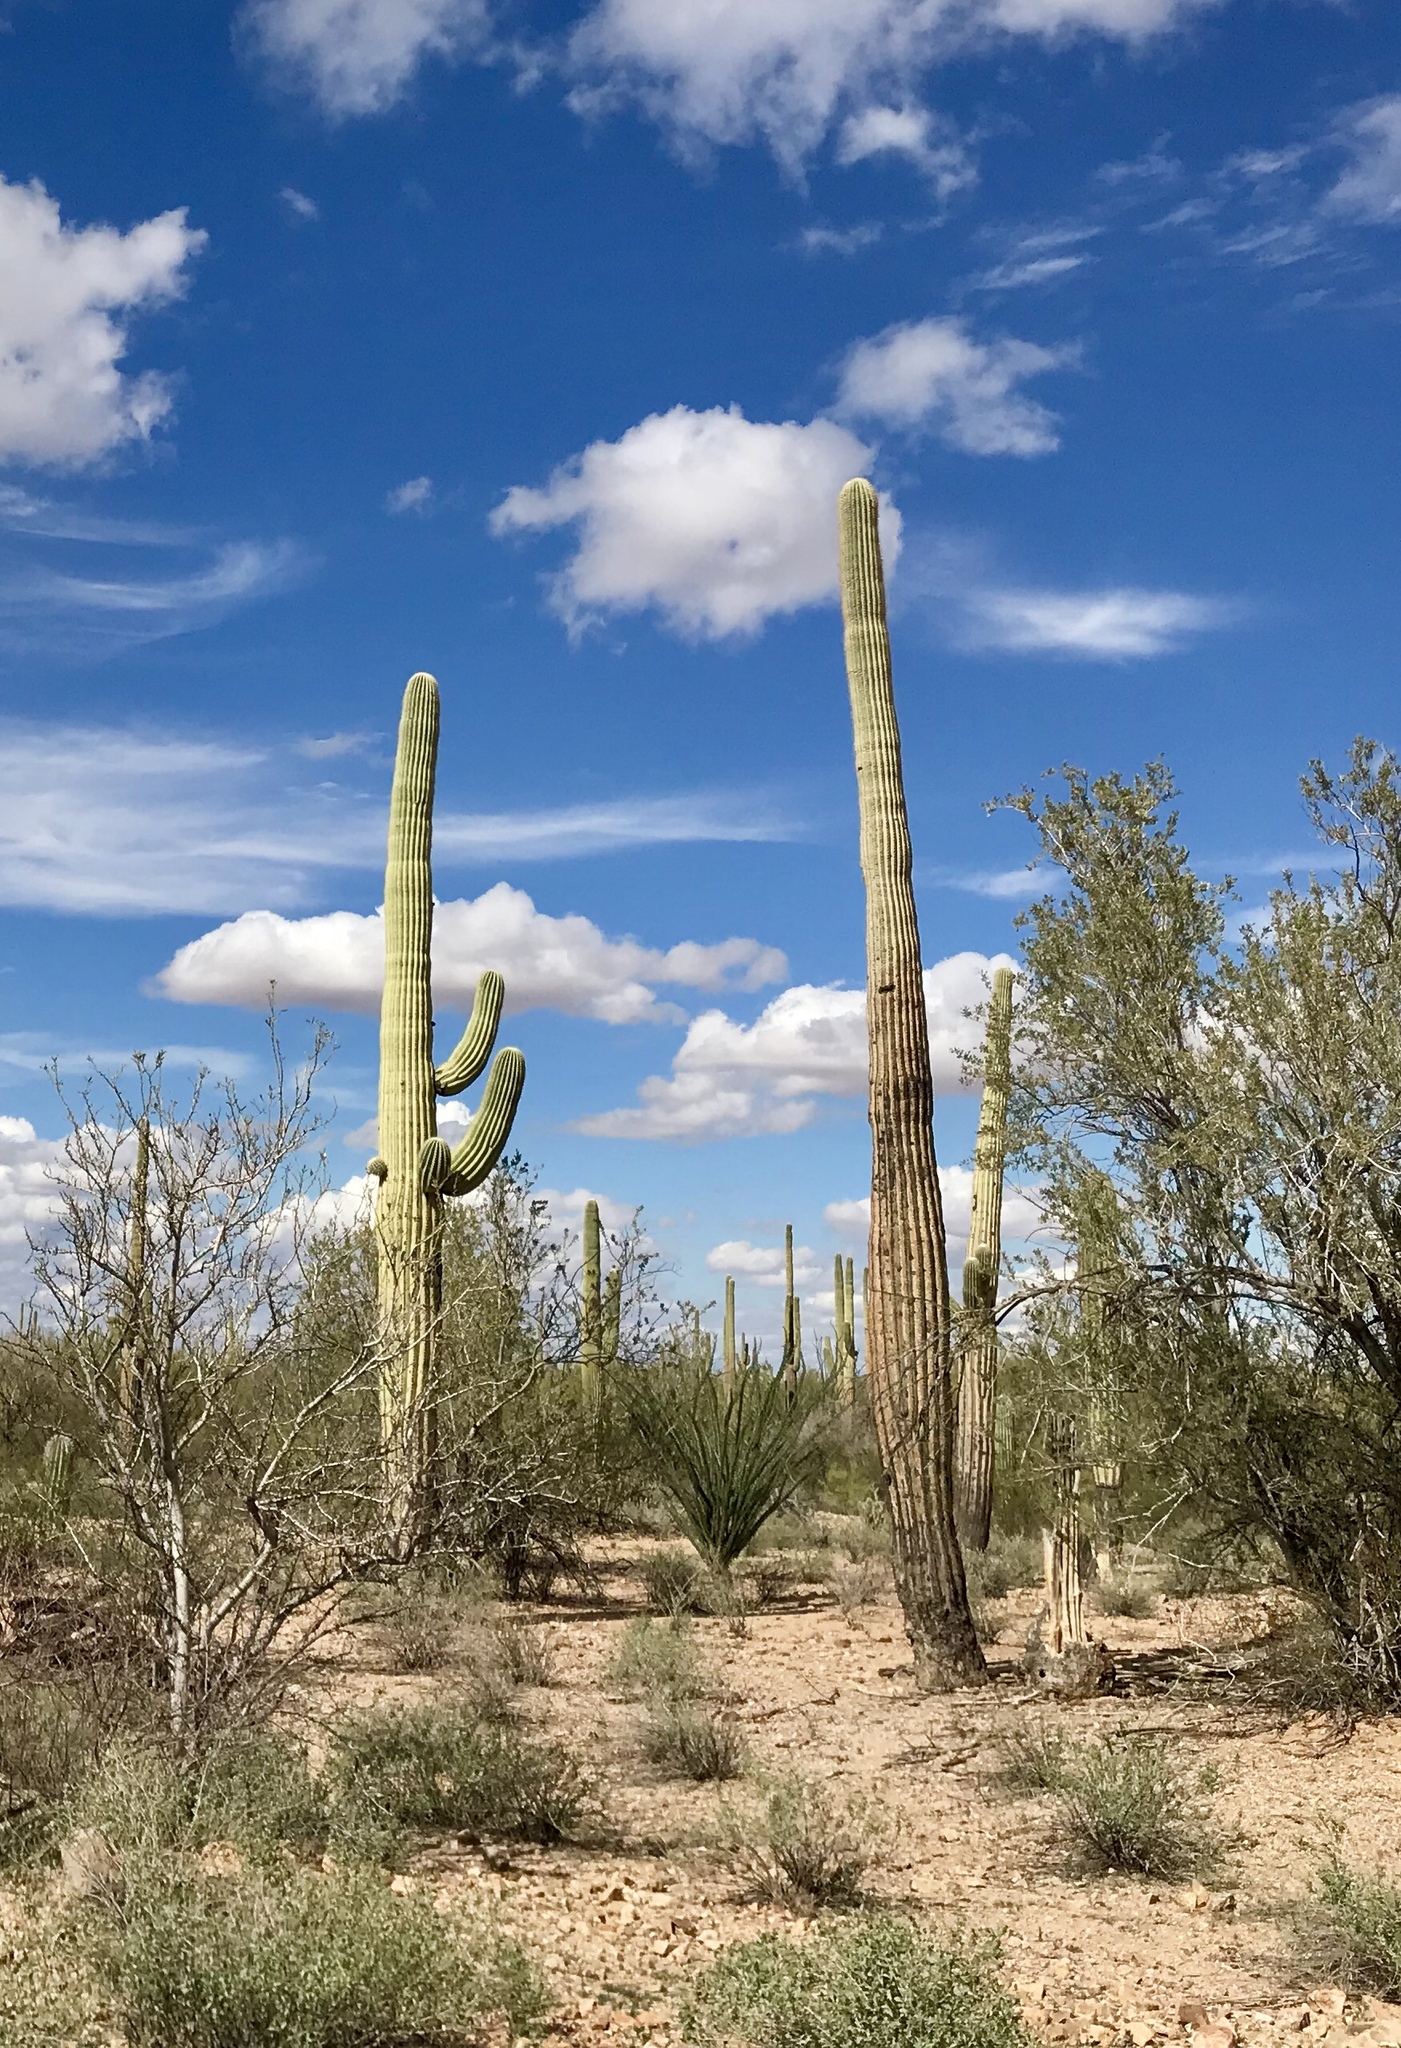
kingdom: Plantae
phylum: Tracheophyta
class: Magnoliopsida
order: Caryophyllales
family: Cactaceae
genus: Carnegiea
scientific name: Carnegiea gigantea
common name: Saguaro
